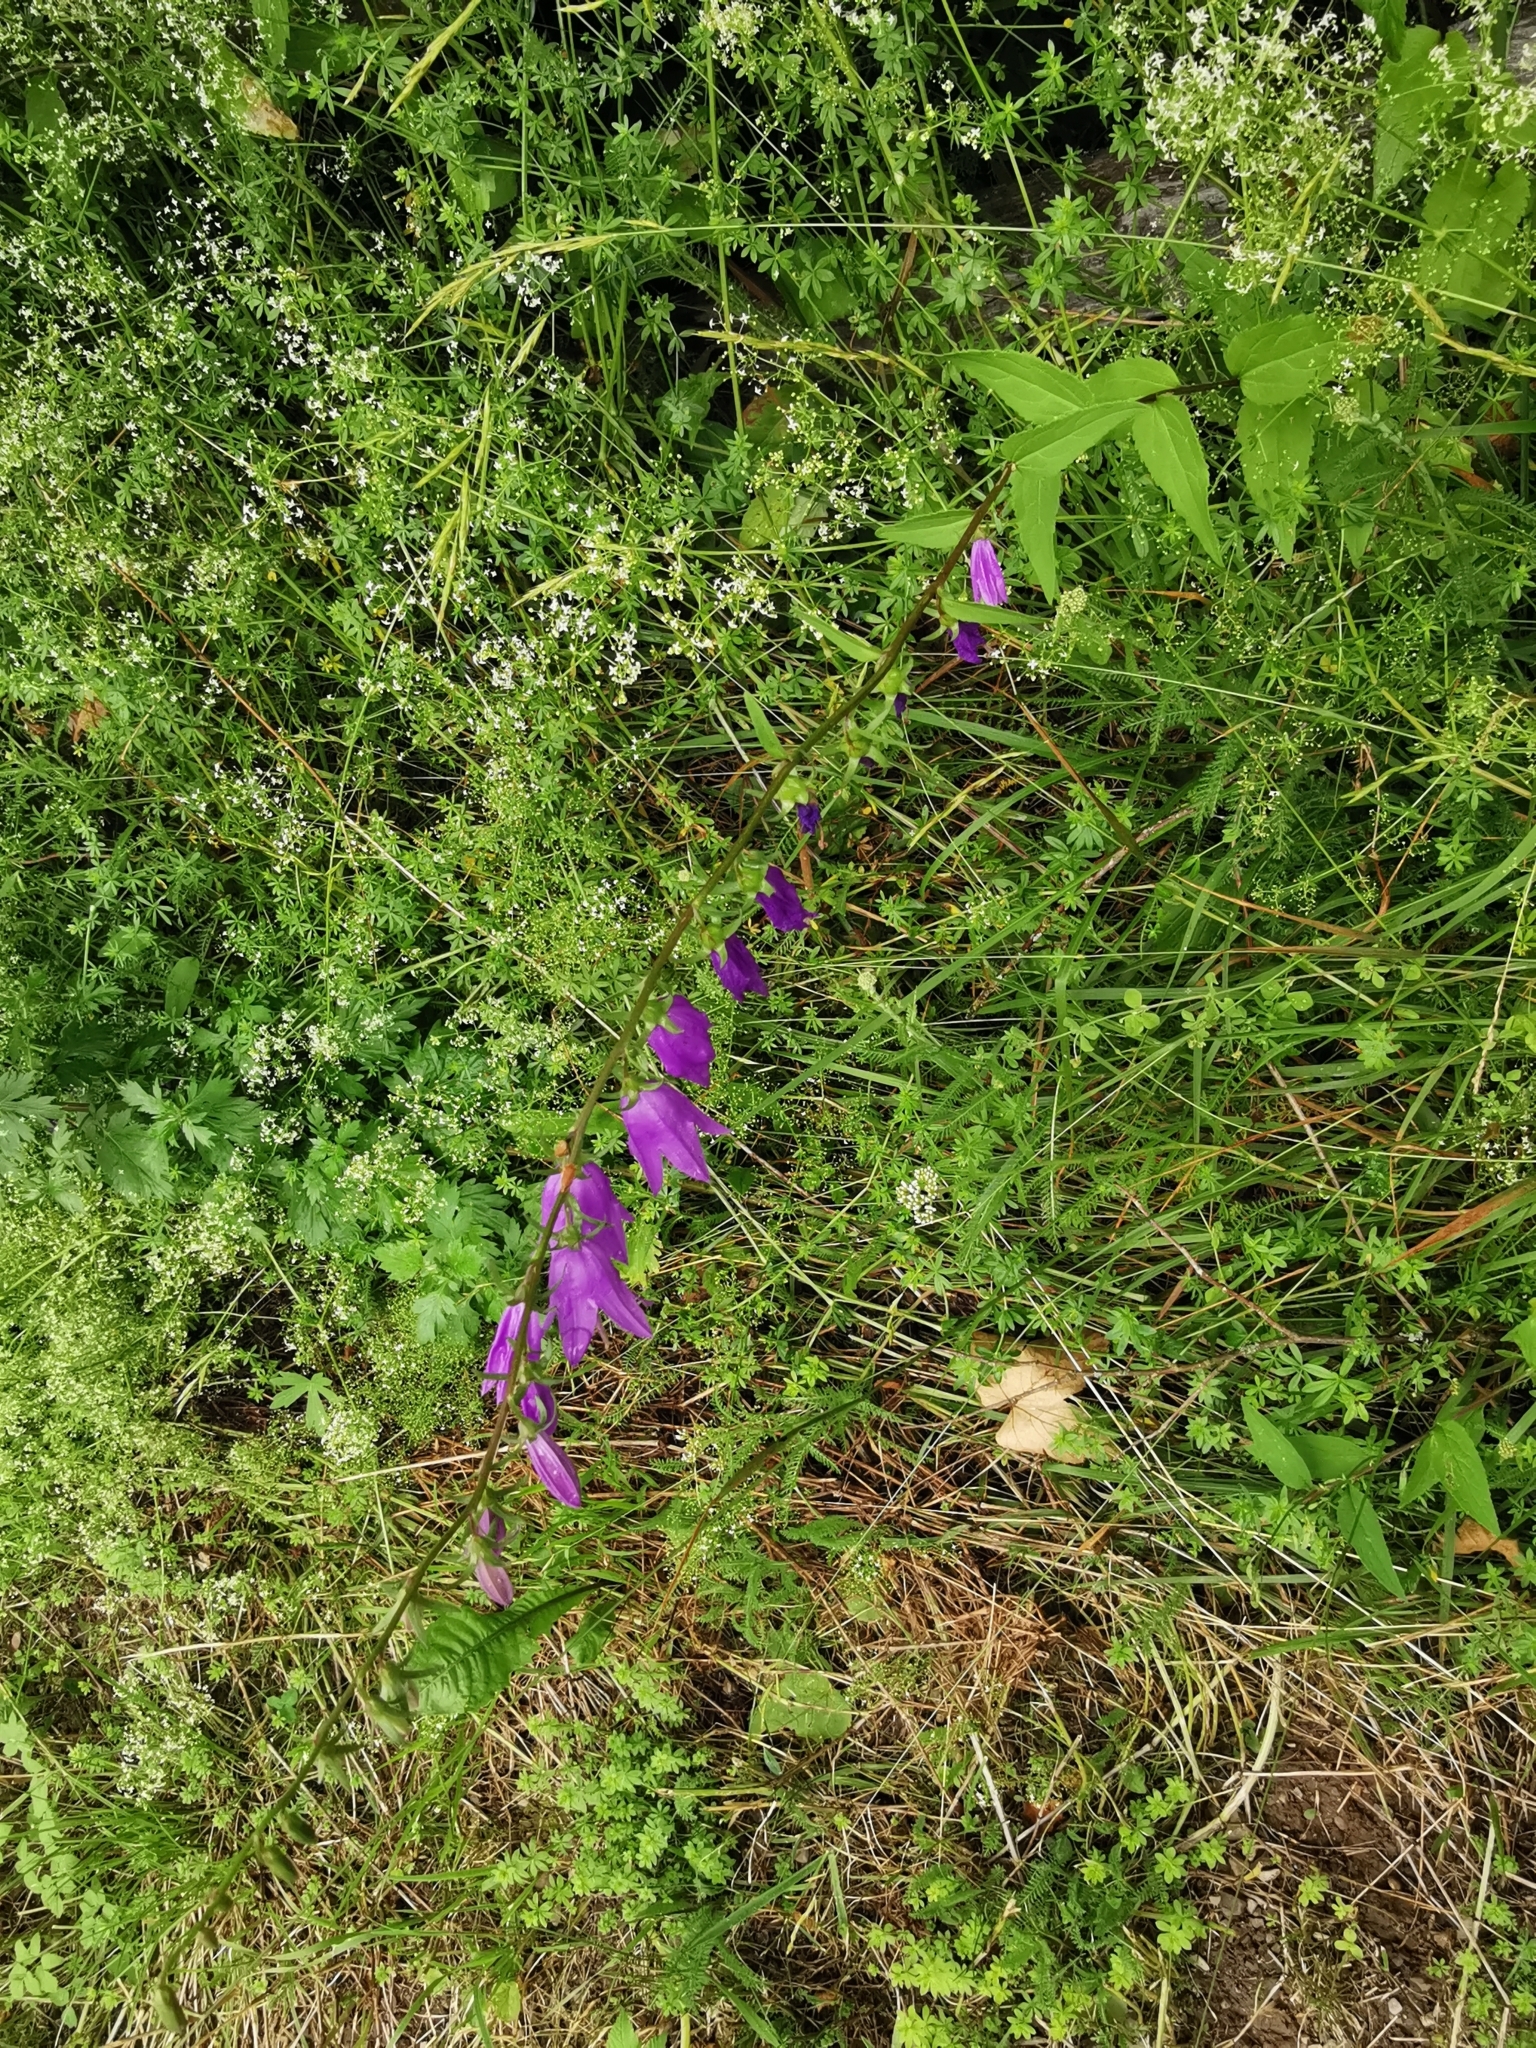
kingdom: Plantae
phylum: Tracheophyta
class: Magnoliopsida
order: Asterales
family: Campanulaceae
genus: Campanula
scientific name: Campanula rapunculoides
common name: Creeping bellflower
